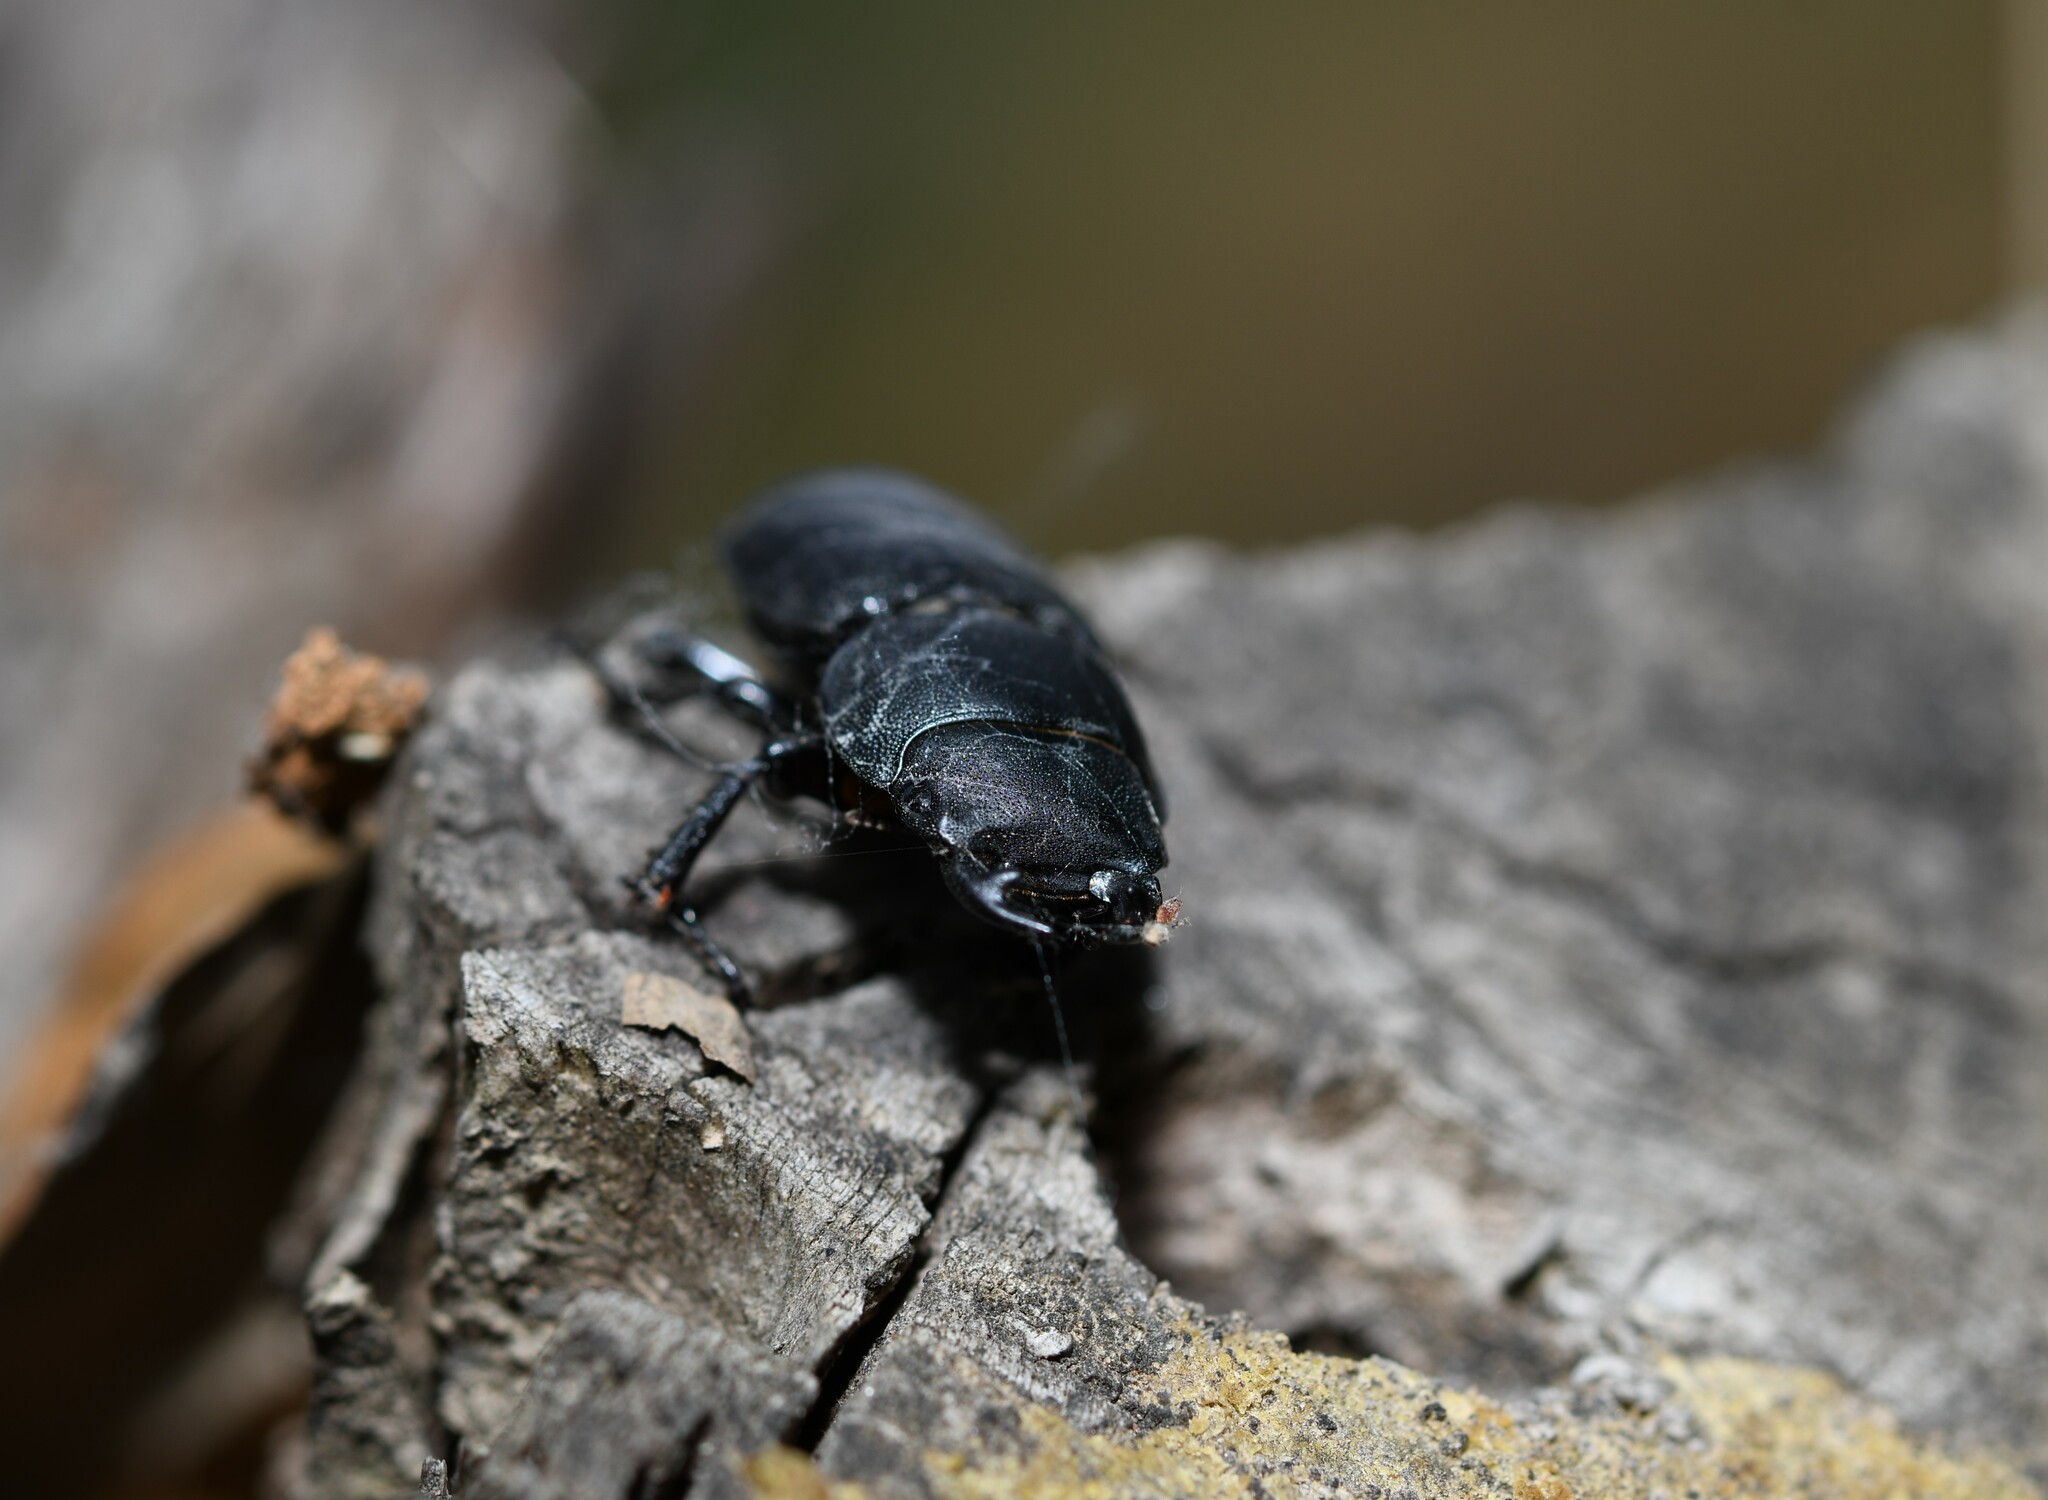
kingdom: Animalia
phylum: Arthropoda
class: Insecta
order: Coleoptera
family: Lucanidae
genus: Dorcus
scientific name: Dorcus parallelipipedus
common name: Lesser stag beetle
